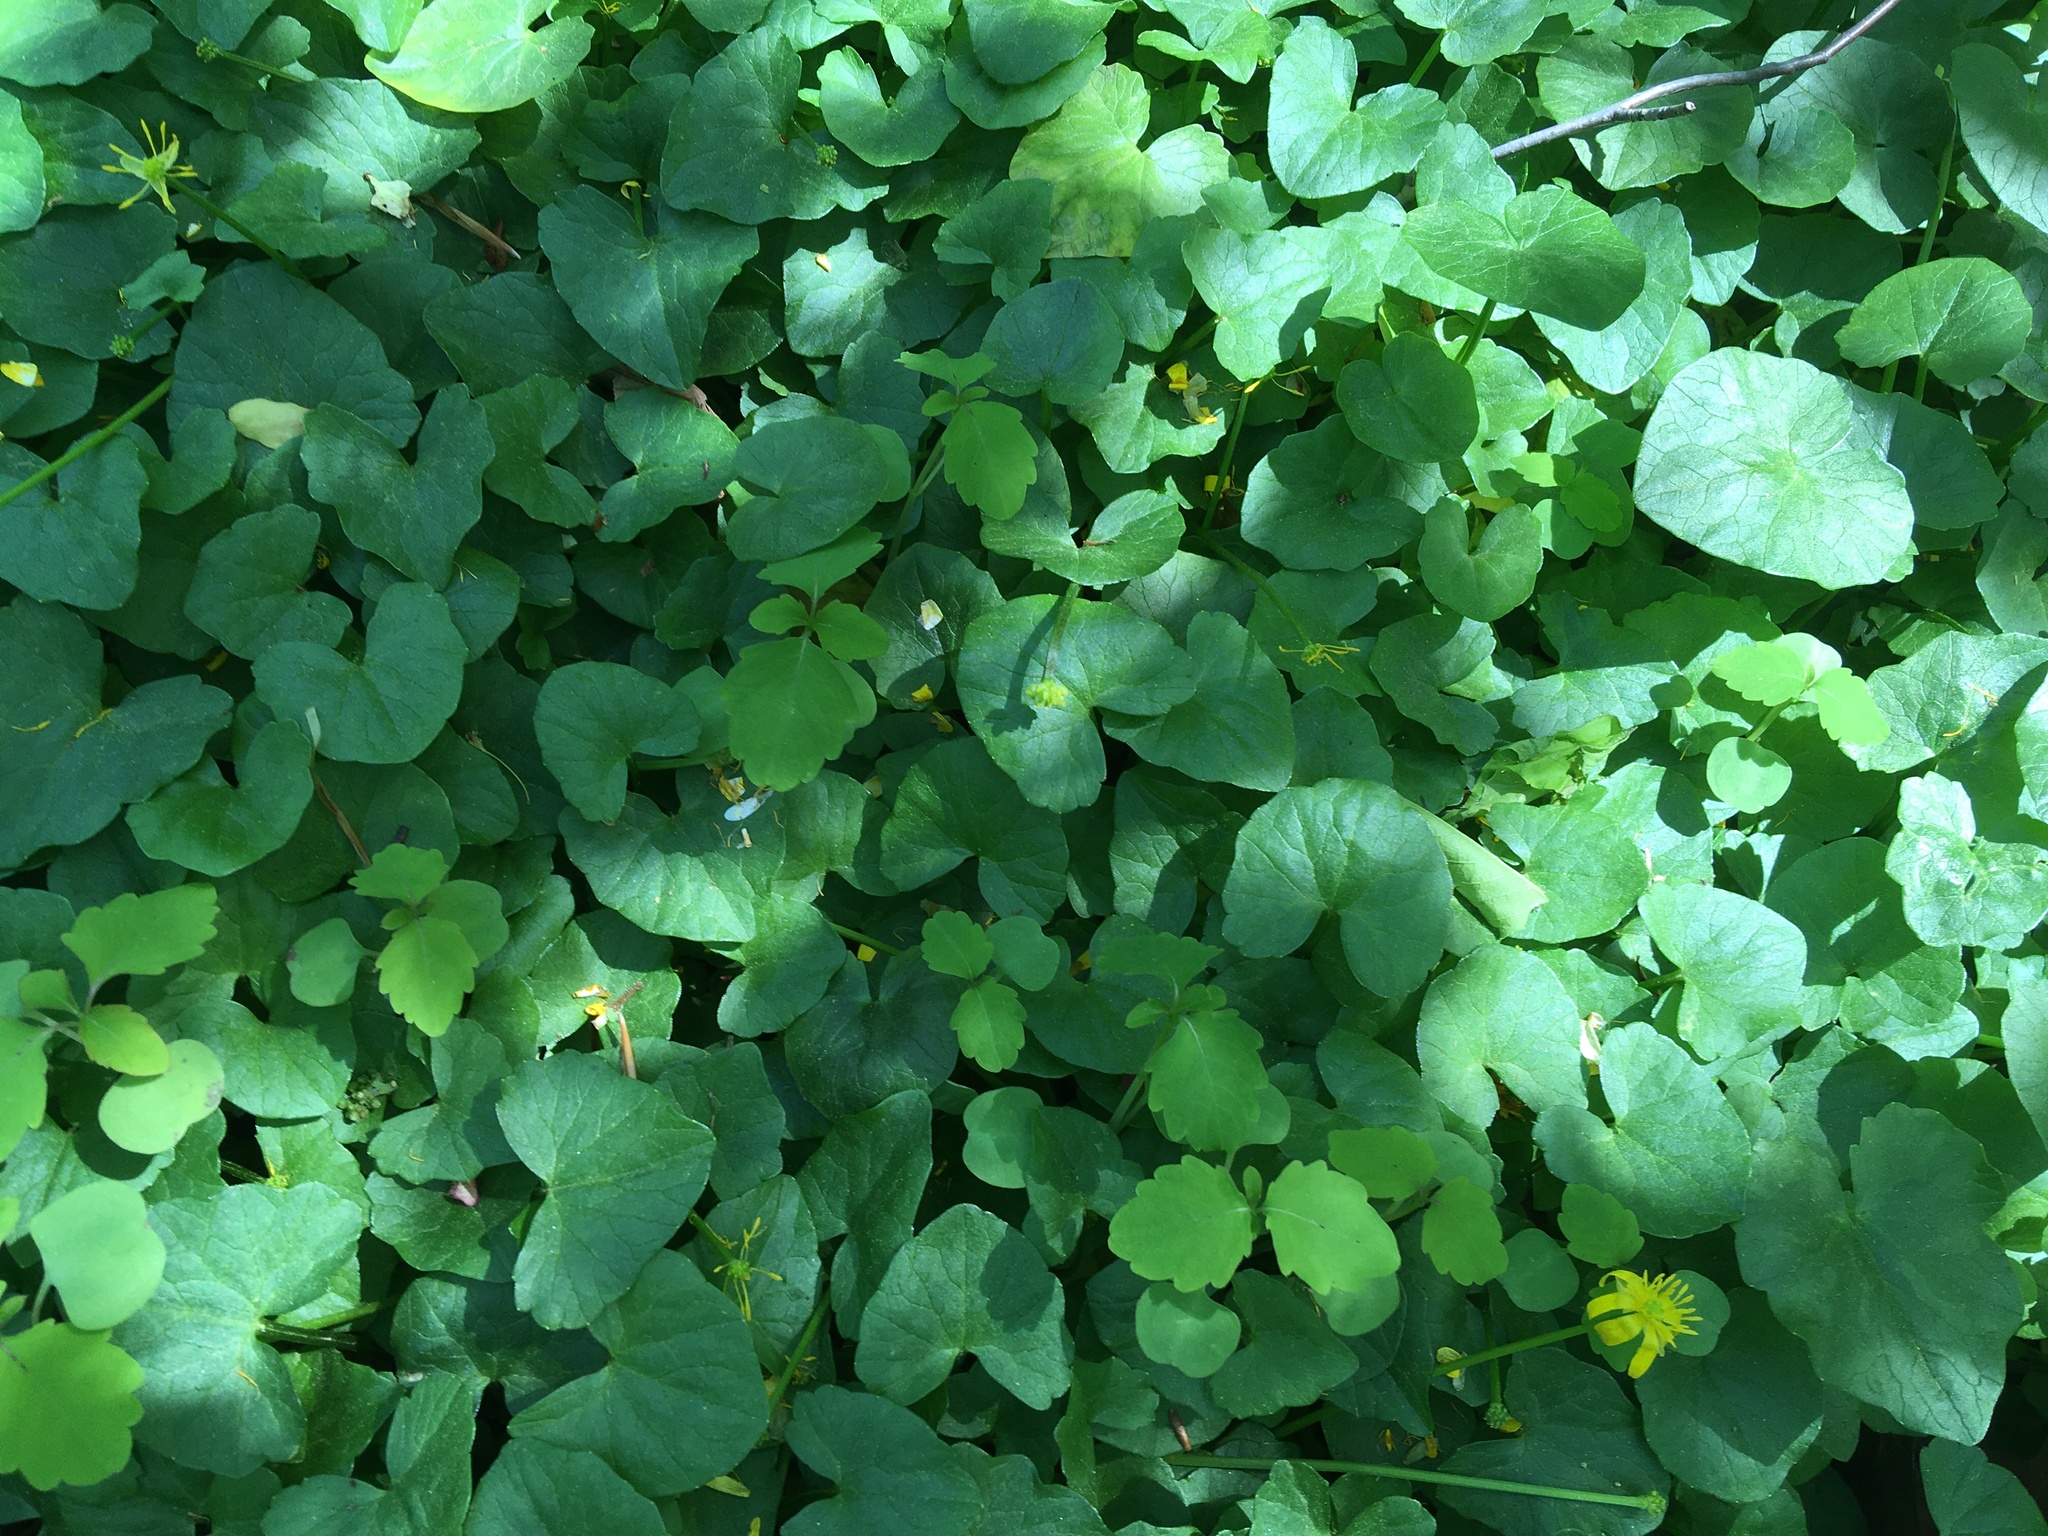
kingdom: Plantae
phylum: Tracheophyta
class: Magnoliopsida
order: Ranunculales
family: Ranunculaceae
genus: Ficaria
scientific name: Ficaria verna
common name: Lesser celandine
